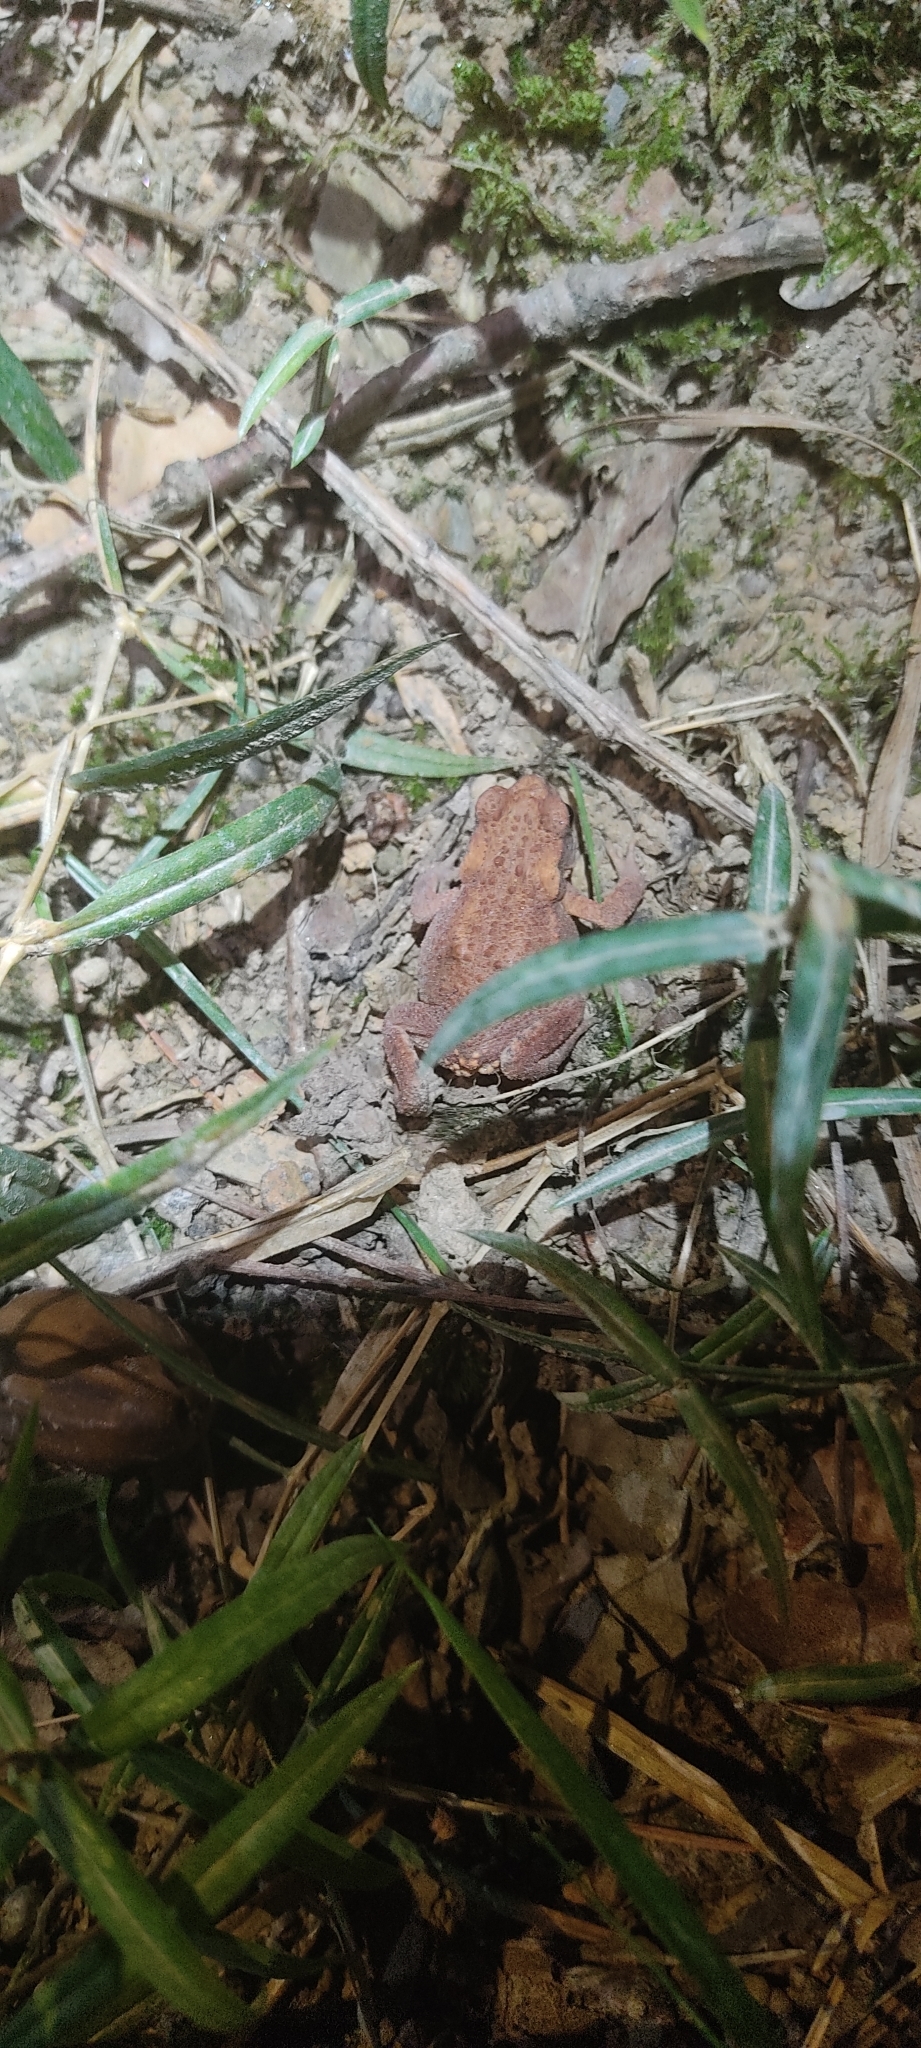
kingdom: Animalia
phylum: Chordata
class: Amphibia
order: Anura
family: Bufonidae
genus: Bufo
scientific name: Bufo spinosus
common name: Western common toad
